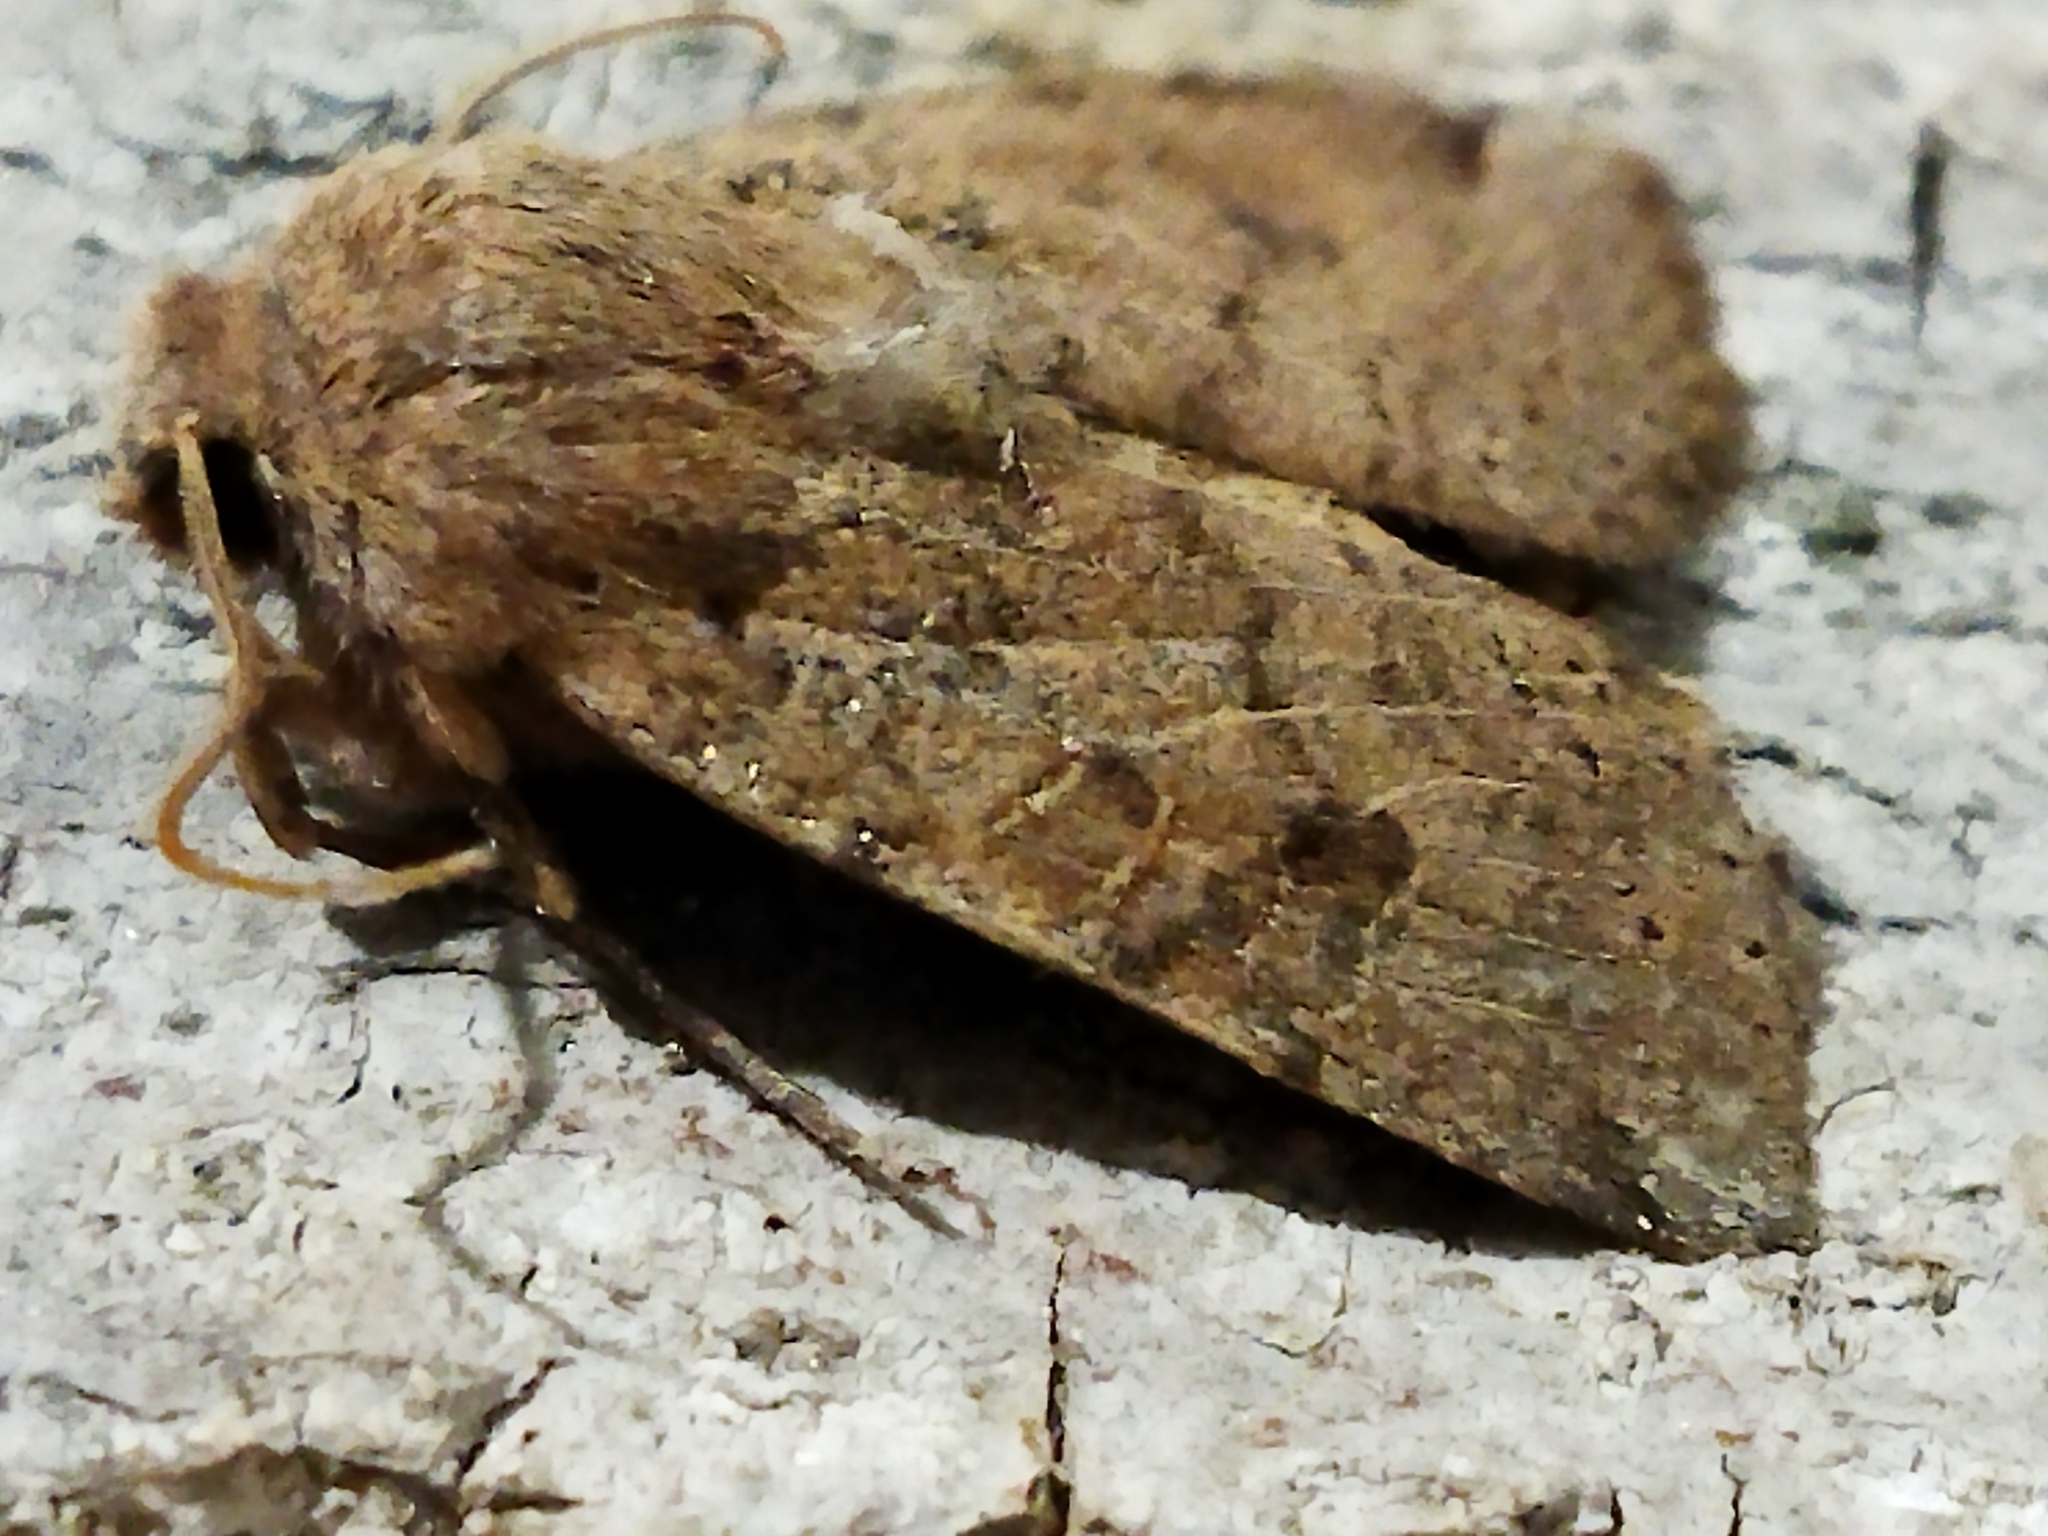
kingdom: Animalia
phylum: Arthropoda
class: Insecta
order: Lepidoptera
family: Noctuidae
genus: Conistra
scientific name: Conistra veronicae
